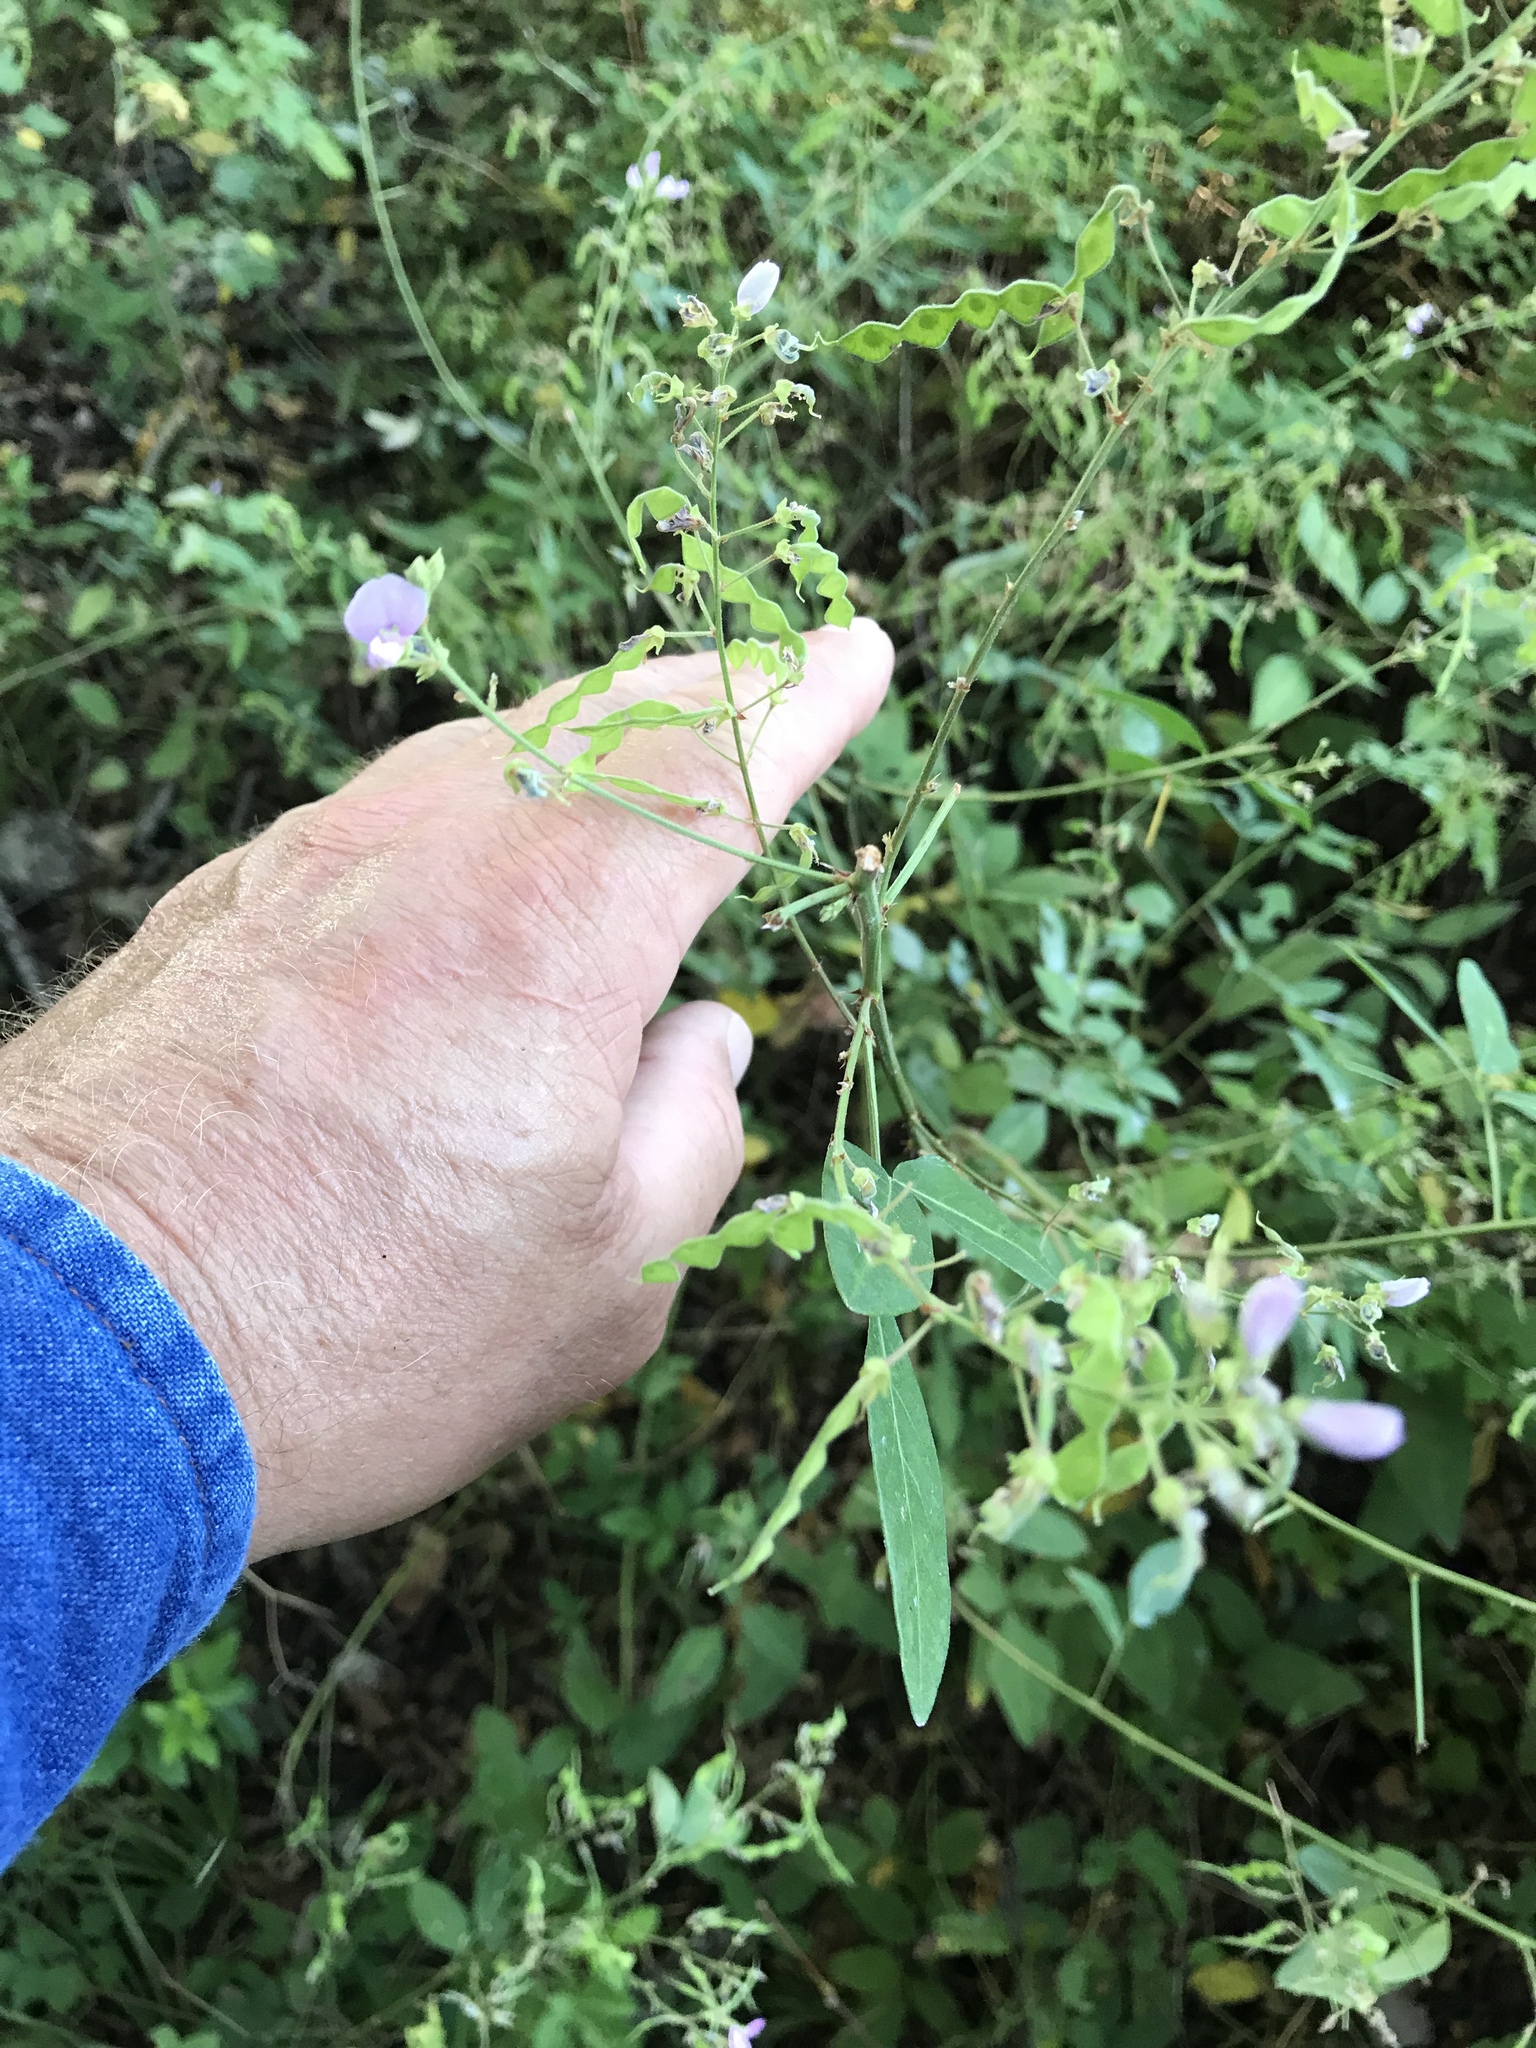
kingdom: Plantae
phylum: Tracheophyta
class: Magnoliopsida
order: Fabales
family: Fabaceae
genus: Desmodium
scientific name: Desmodium paniculatum
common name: Panicled tick-clover
